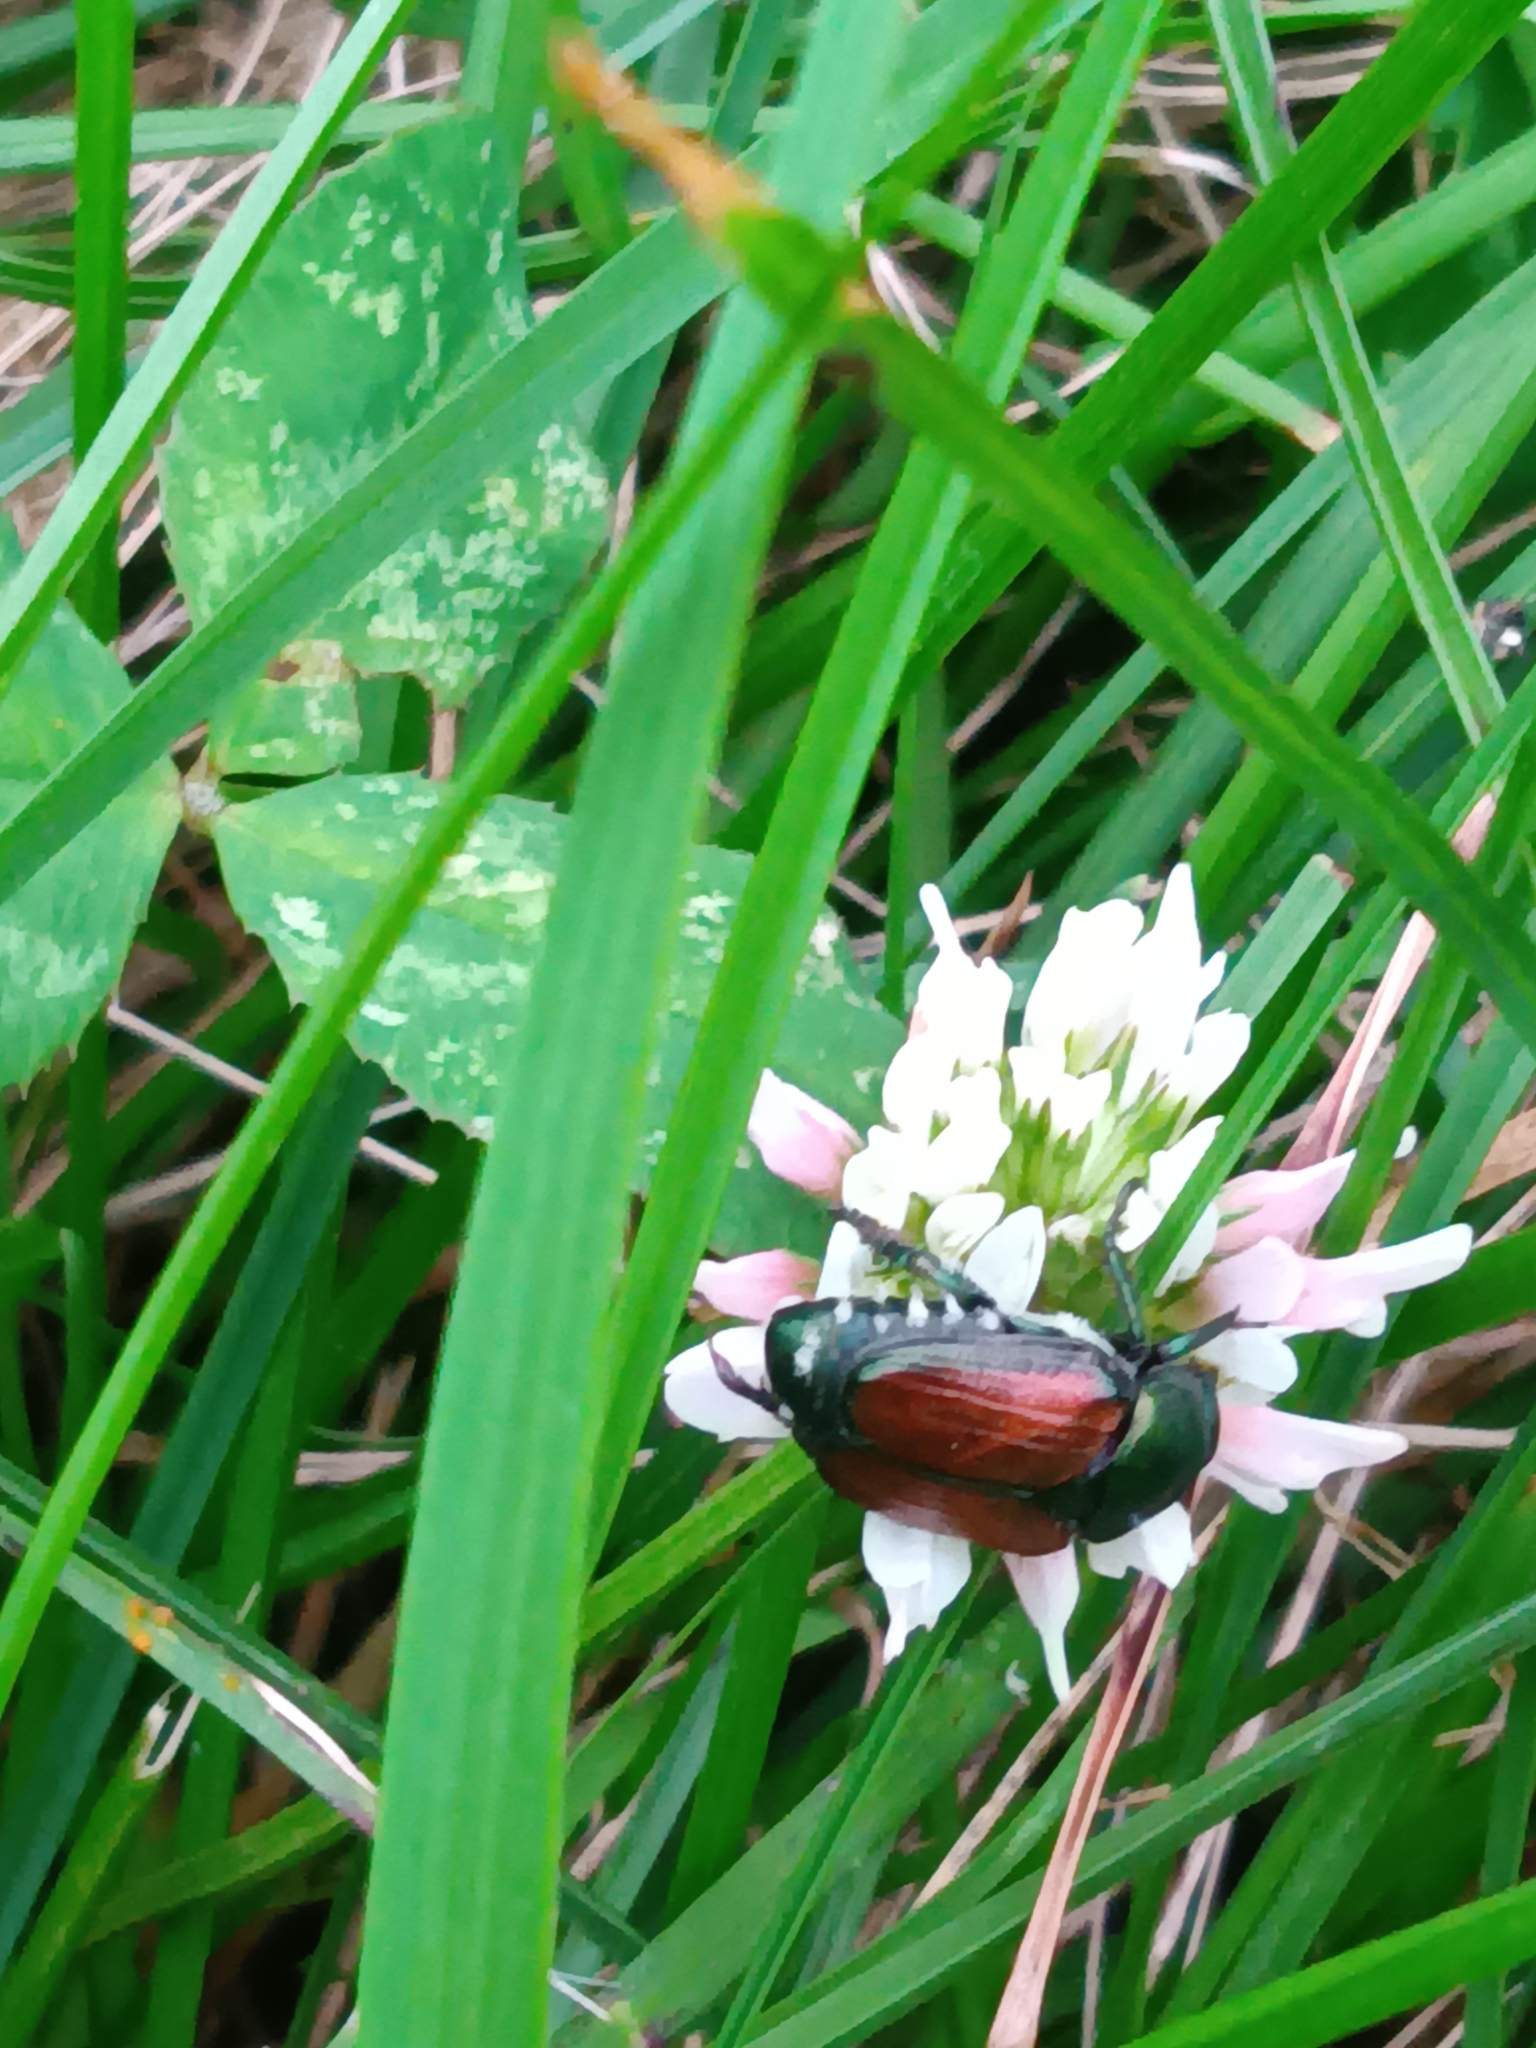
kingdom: Animalia
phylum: Arthropoda
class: Insecta
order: Coleoptera
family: Scarabaeidae
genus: Popillia
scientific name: Popillia japonica
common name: Japanese beetle
